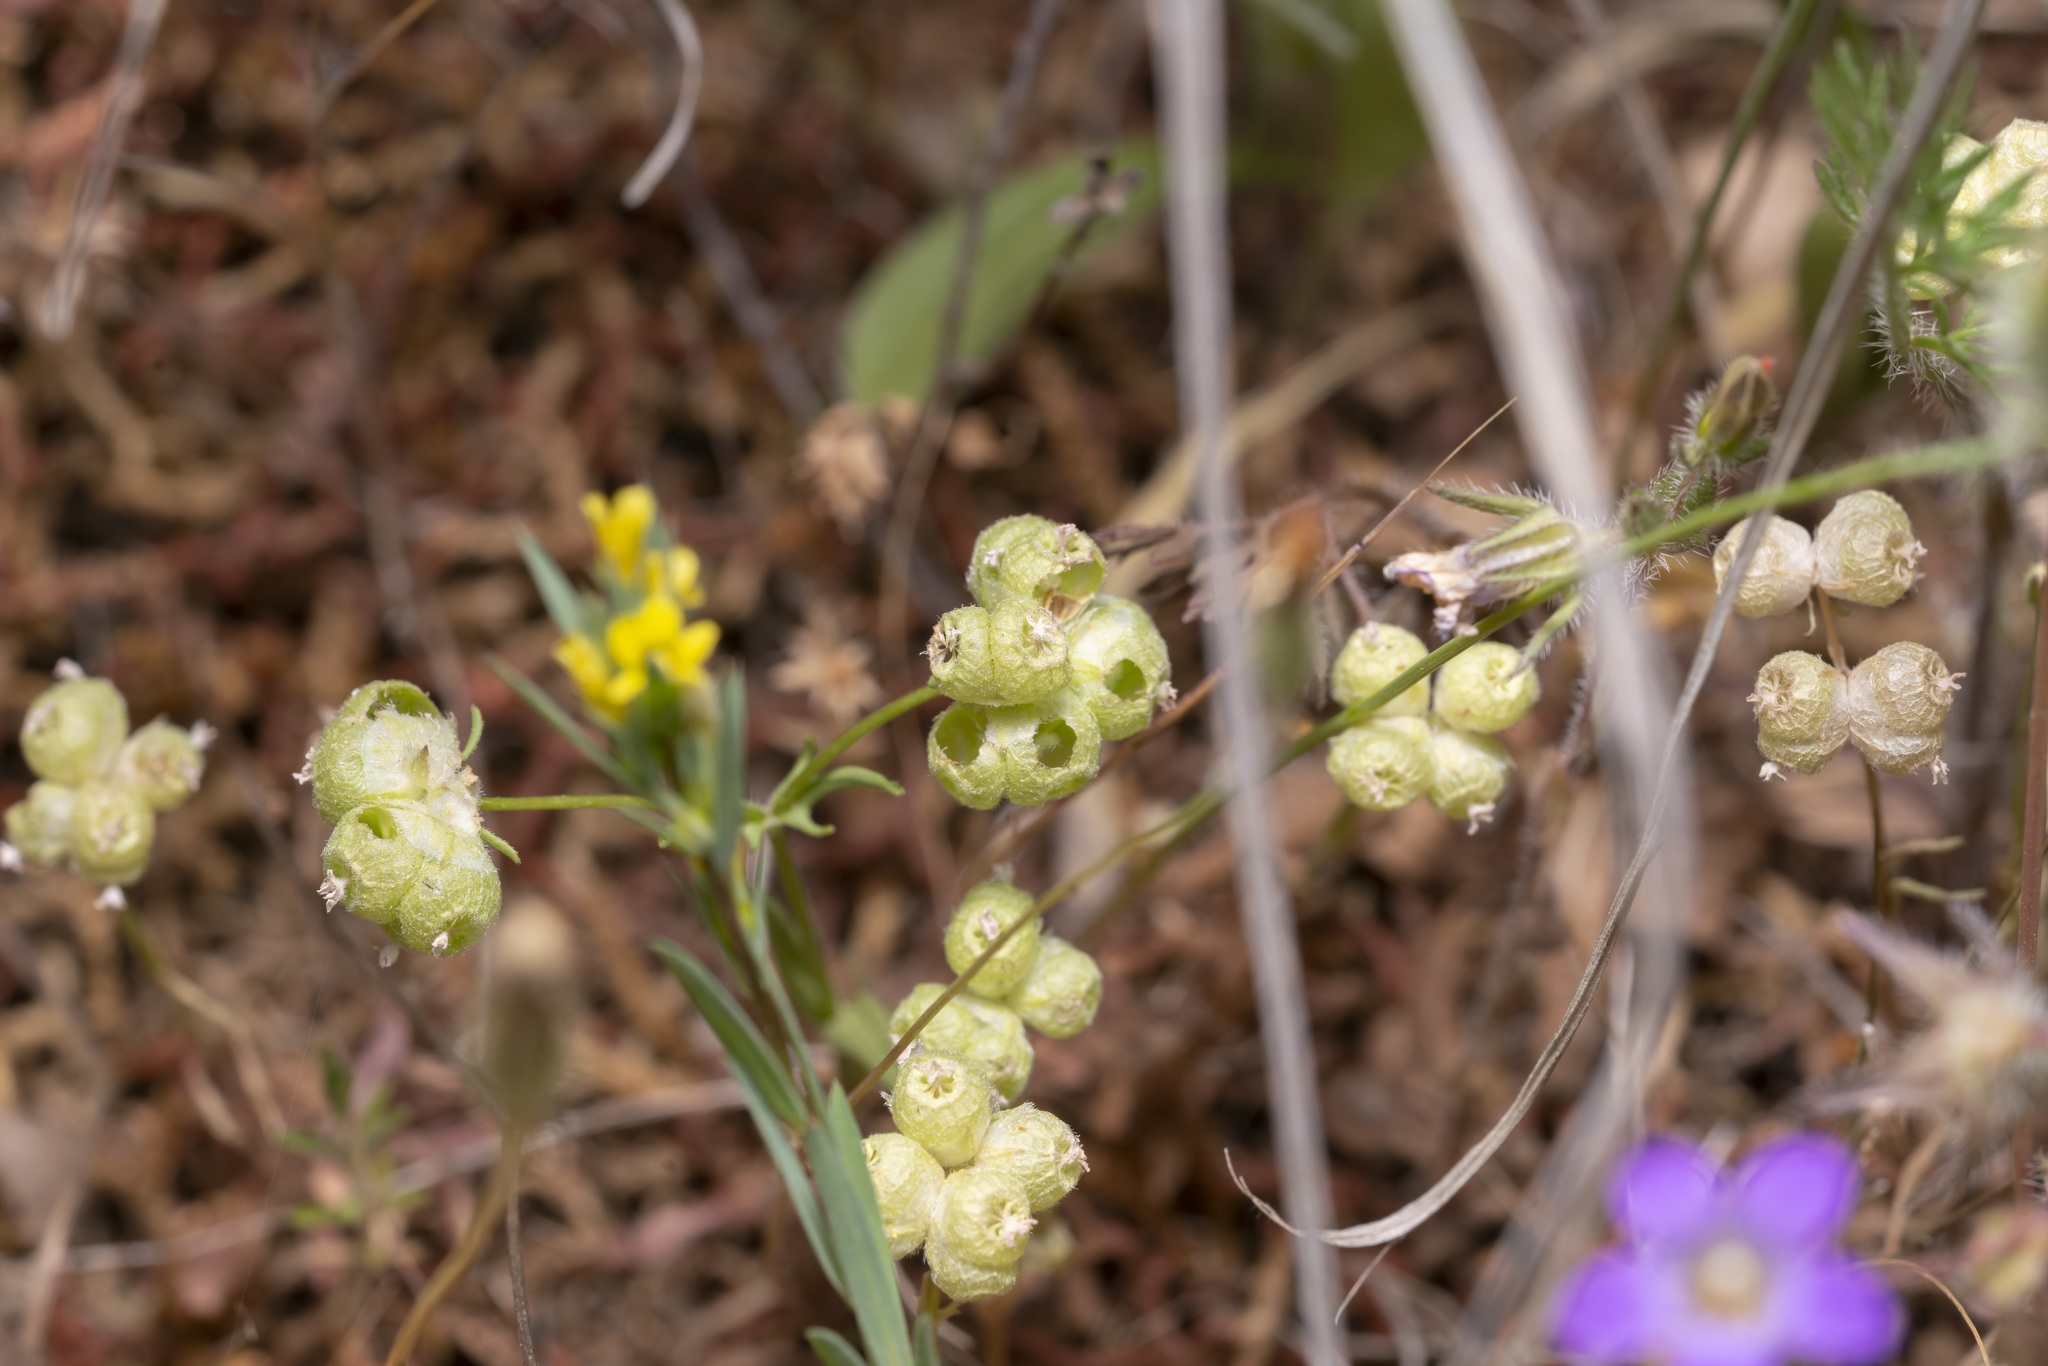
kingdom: Plantae
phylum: Tracheophyta
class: Magnoliopsida
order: Dipsacales
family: Caprifoliaceae
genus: Valerianella
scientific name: Valerianella vesicaria
